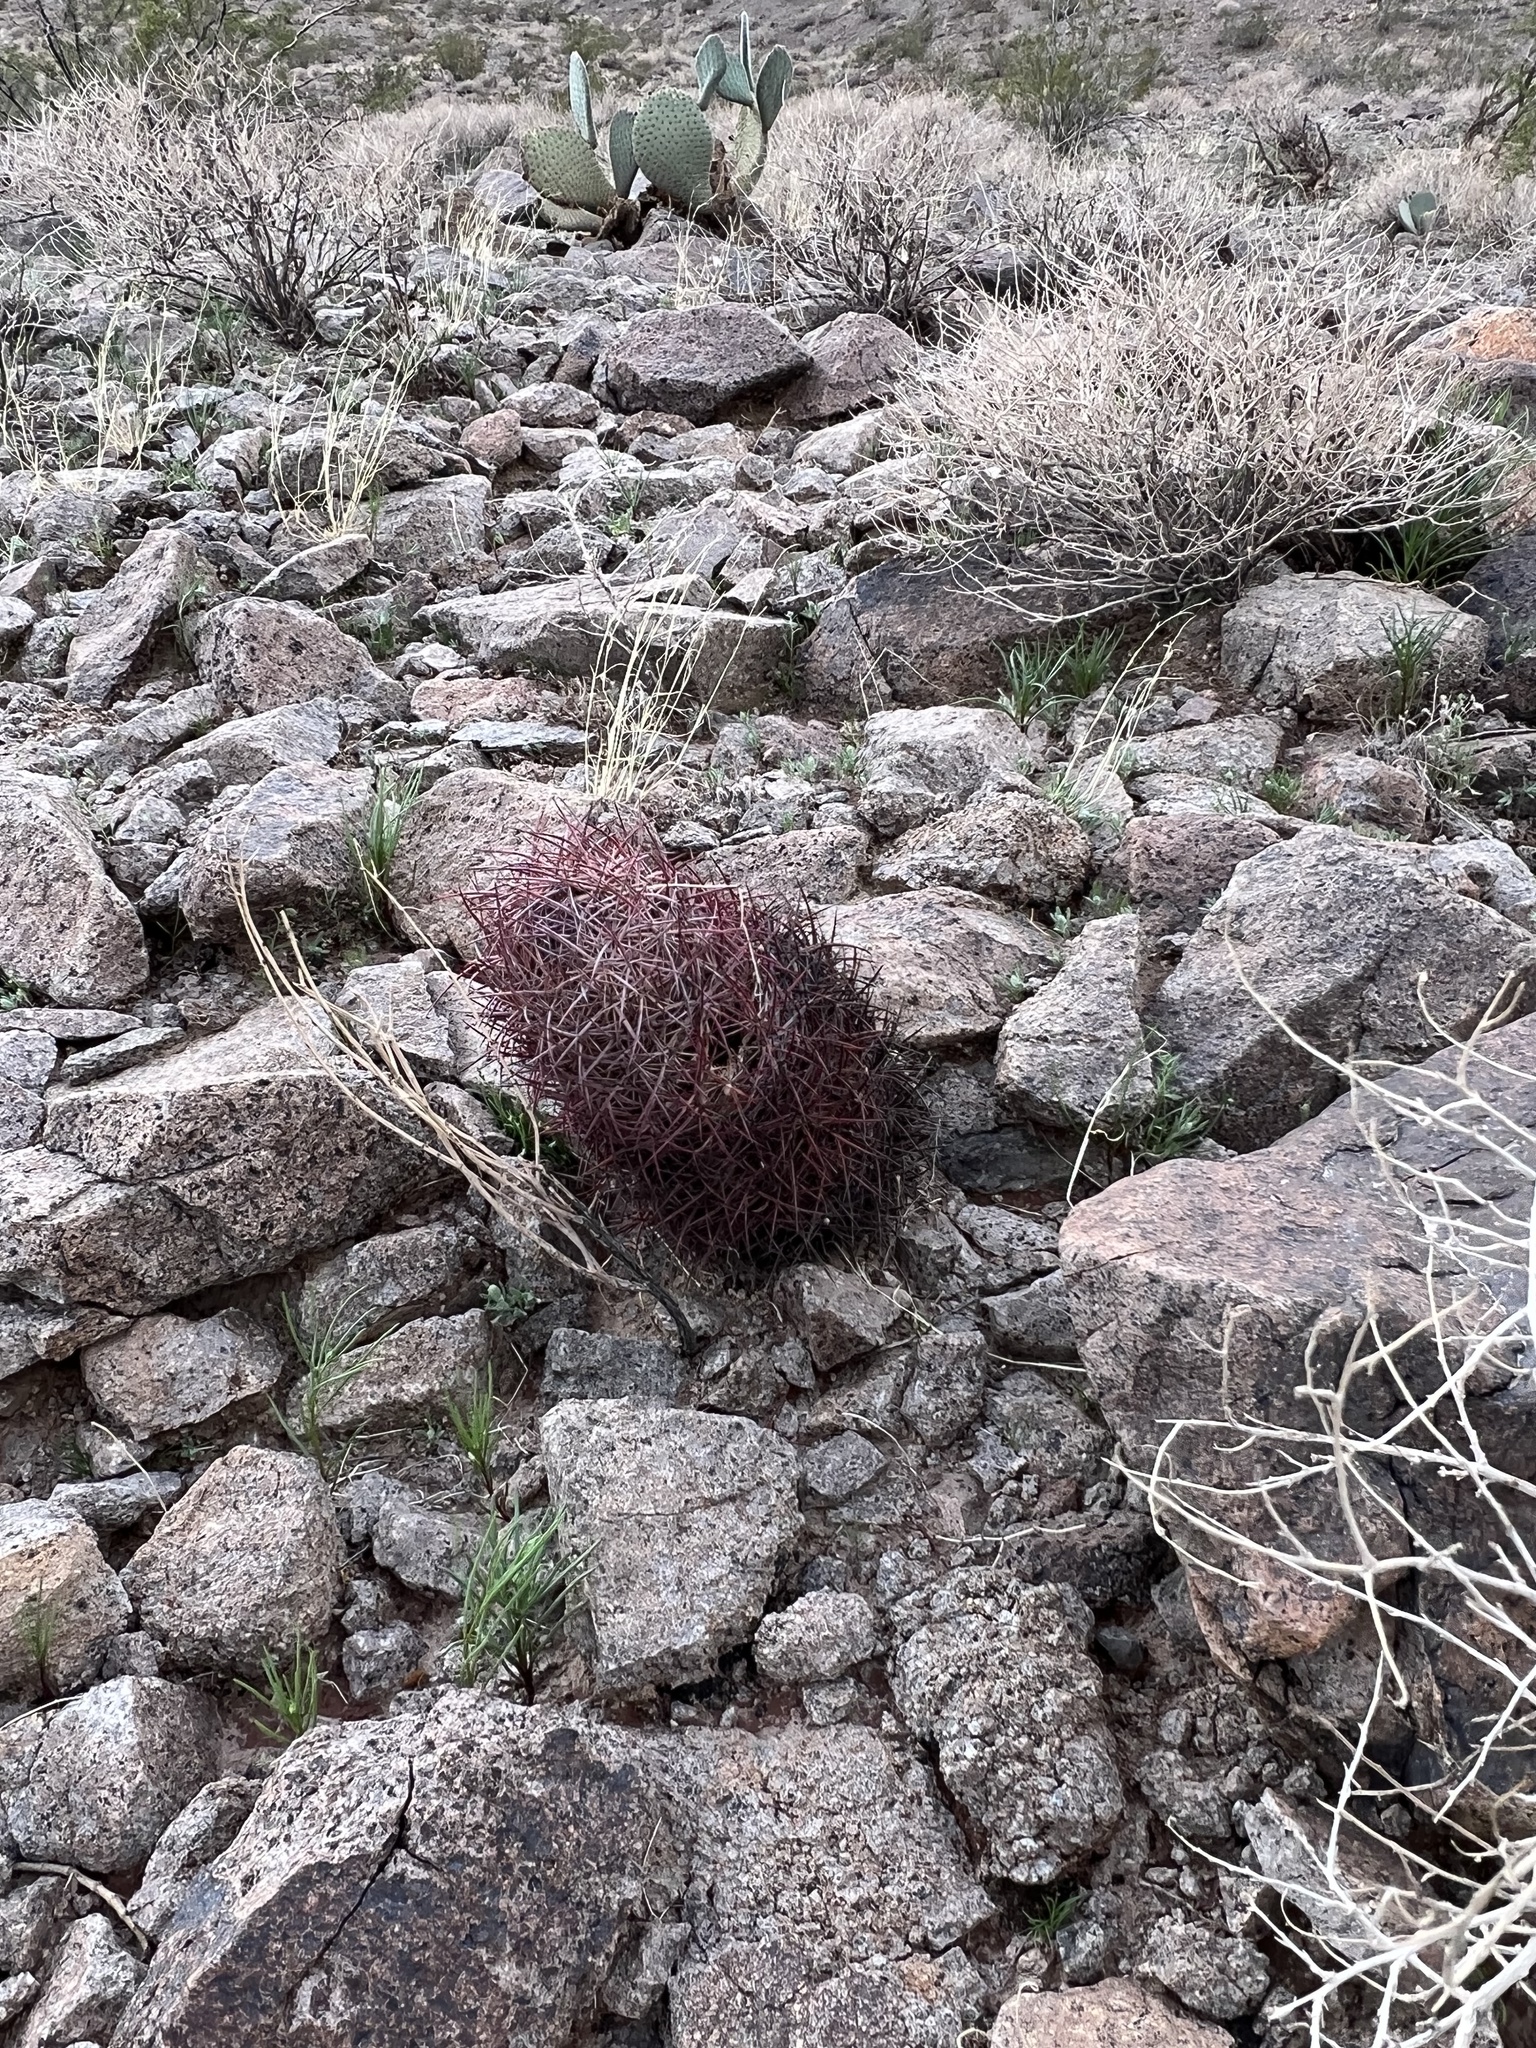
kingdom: Plantae
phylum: Tracheophyta
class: Magnoliopsida
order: Caryophyllales
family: Cactaceae
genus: Sclerocactus
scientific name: Sclerocactus johnsonii
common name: Eight-spine fishhook cactus
